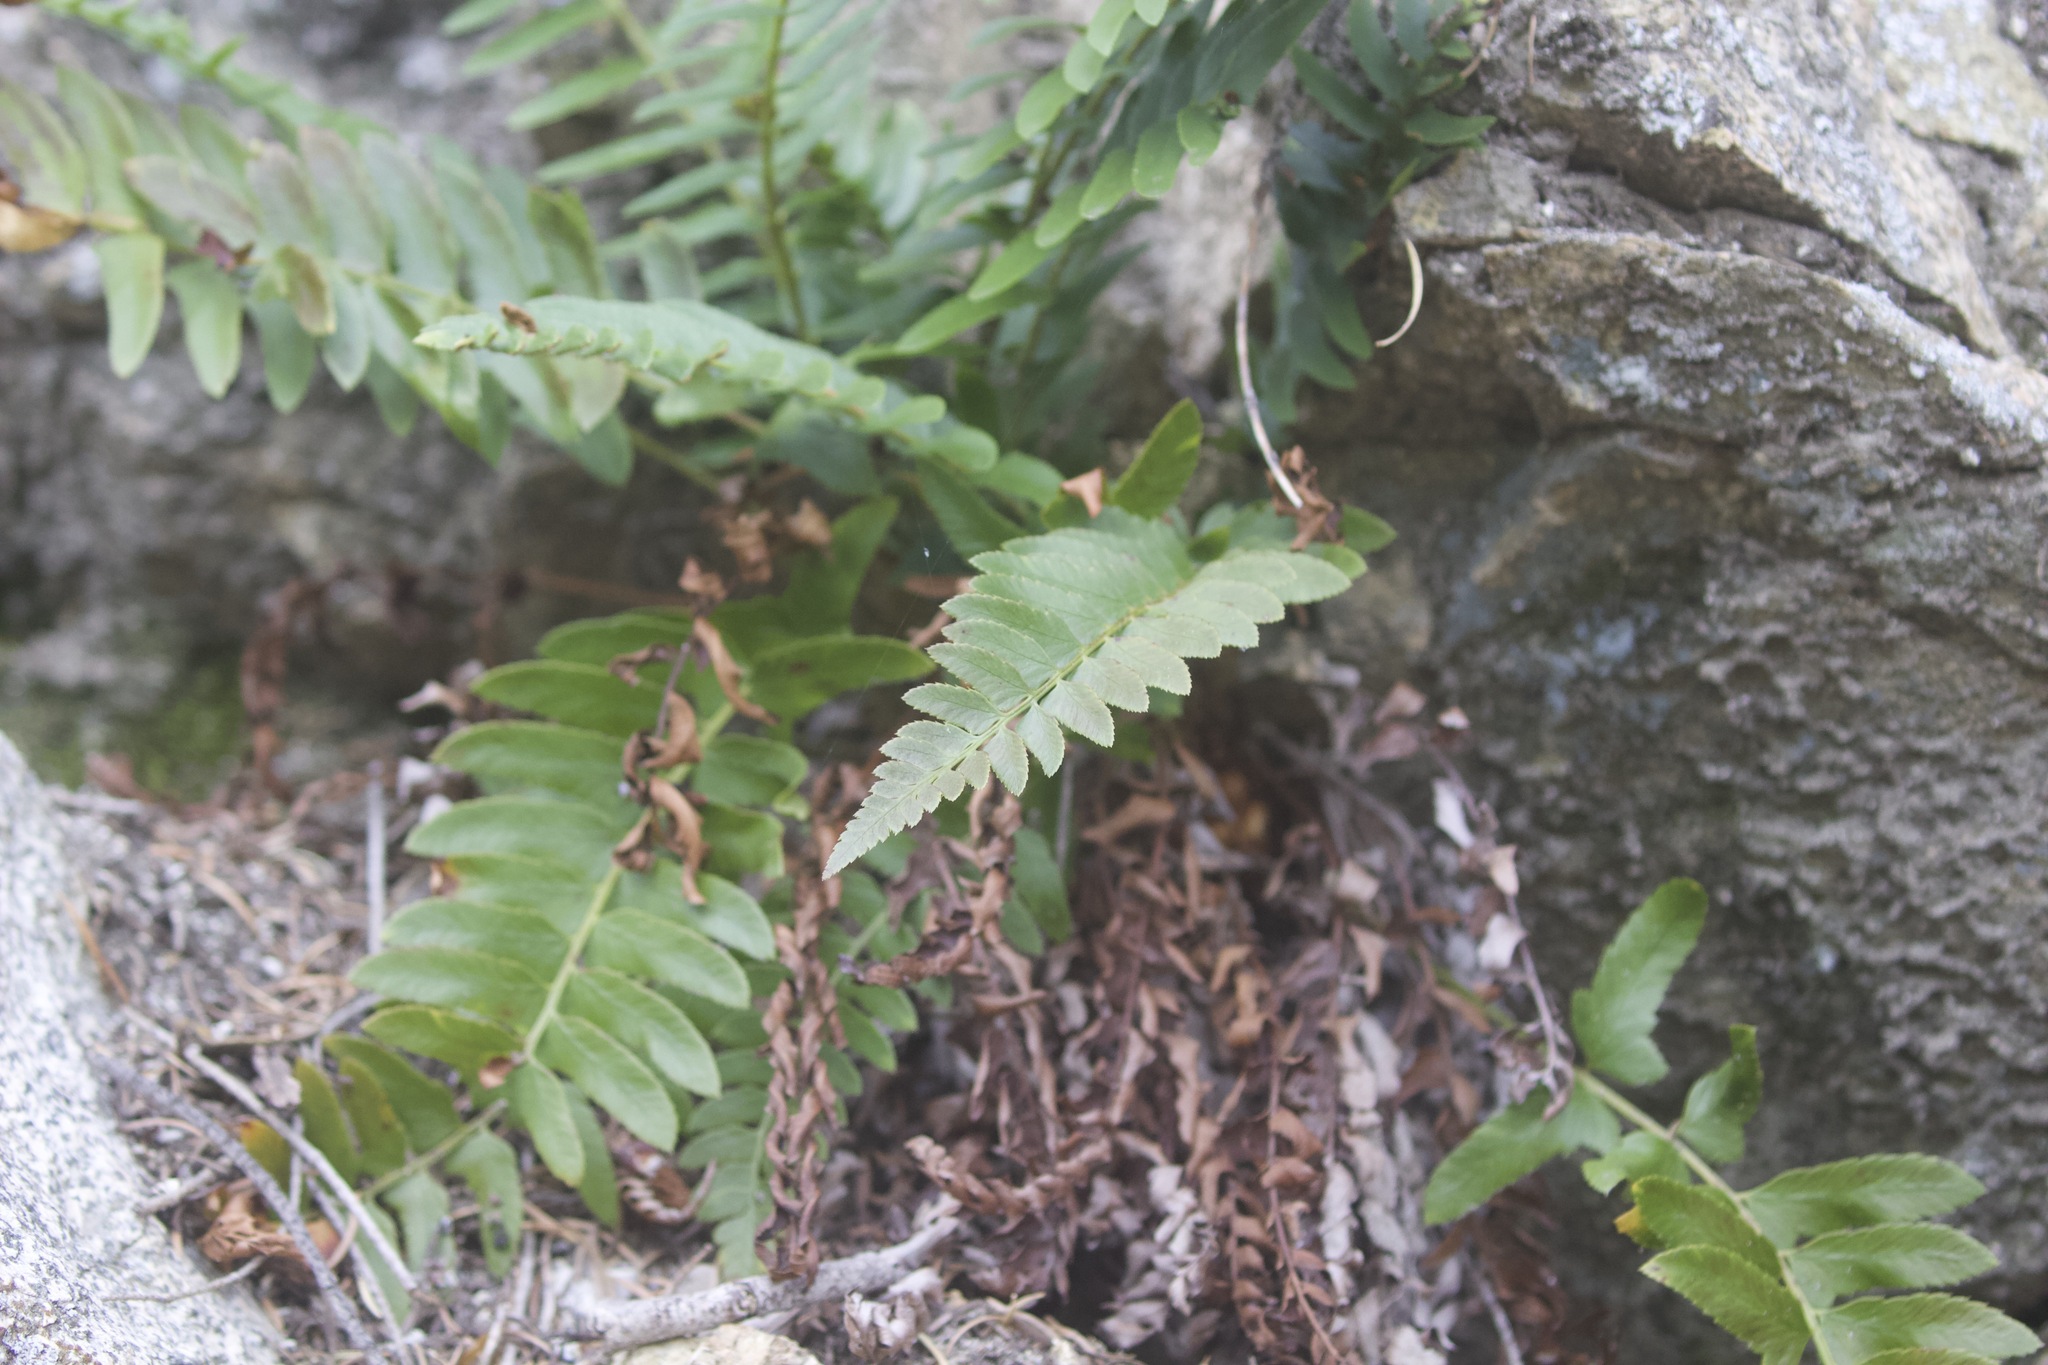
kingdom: Plantae
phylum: Tracheophyta
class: Polypodiopsida
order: Polypodiales
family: Dryopteridaceae
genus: Polystichum
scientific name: Polystichum imbricans
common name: Dwarf western sword fern
